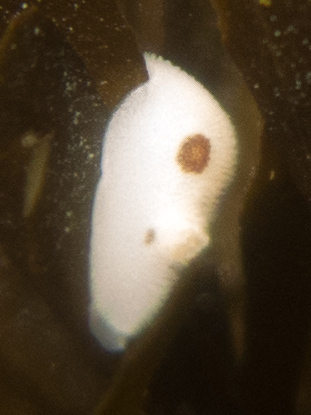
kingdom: Animalia
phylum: Mollusca
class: Gastropoda
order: Nudibranchia
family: Discodorididae
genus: Diaulula
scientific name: Diaulula sandiegensis
